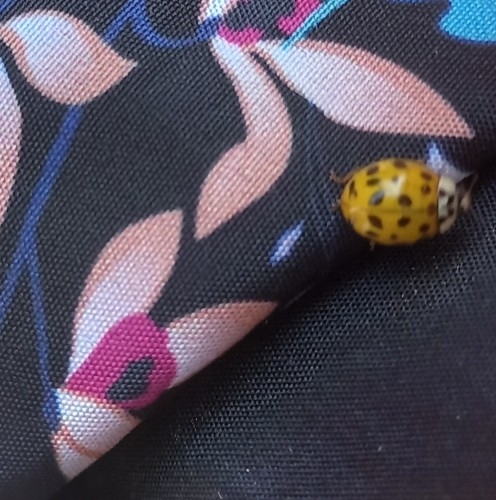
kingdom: Animalia
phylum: Arthropoda
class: Insecta
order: Coleoptera
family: Coccinellidae
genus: Harmonia
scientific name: Harmonia axyridis
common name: Harlequin ladybird
